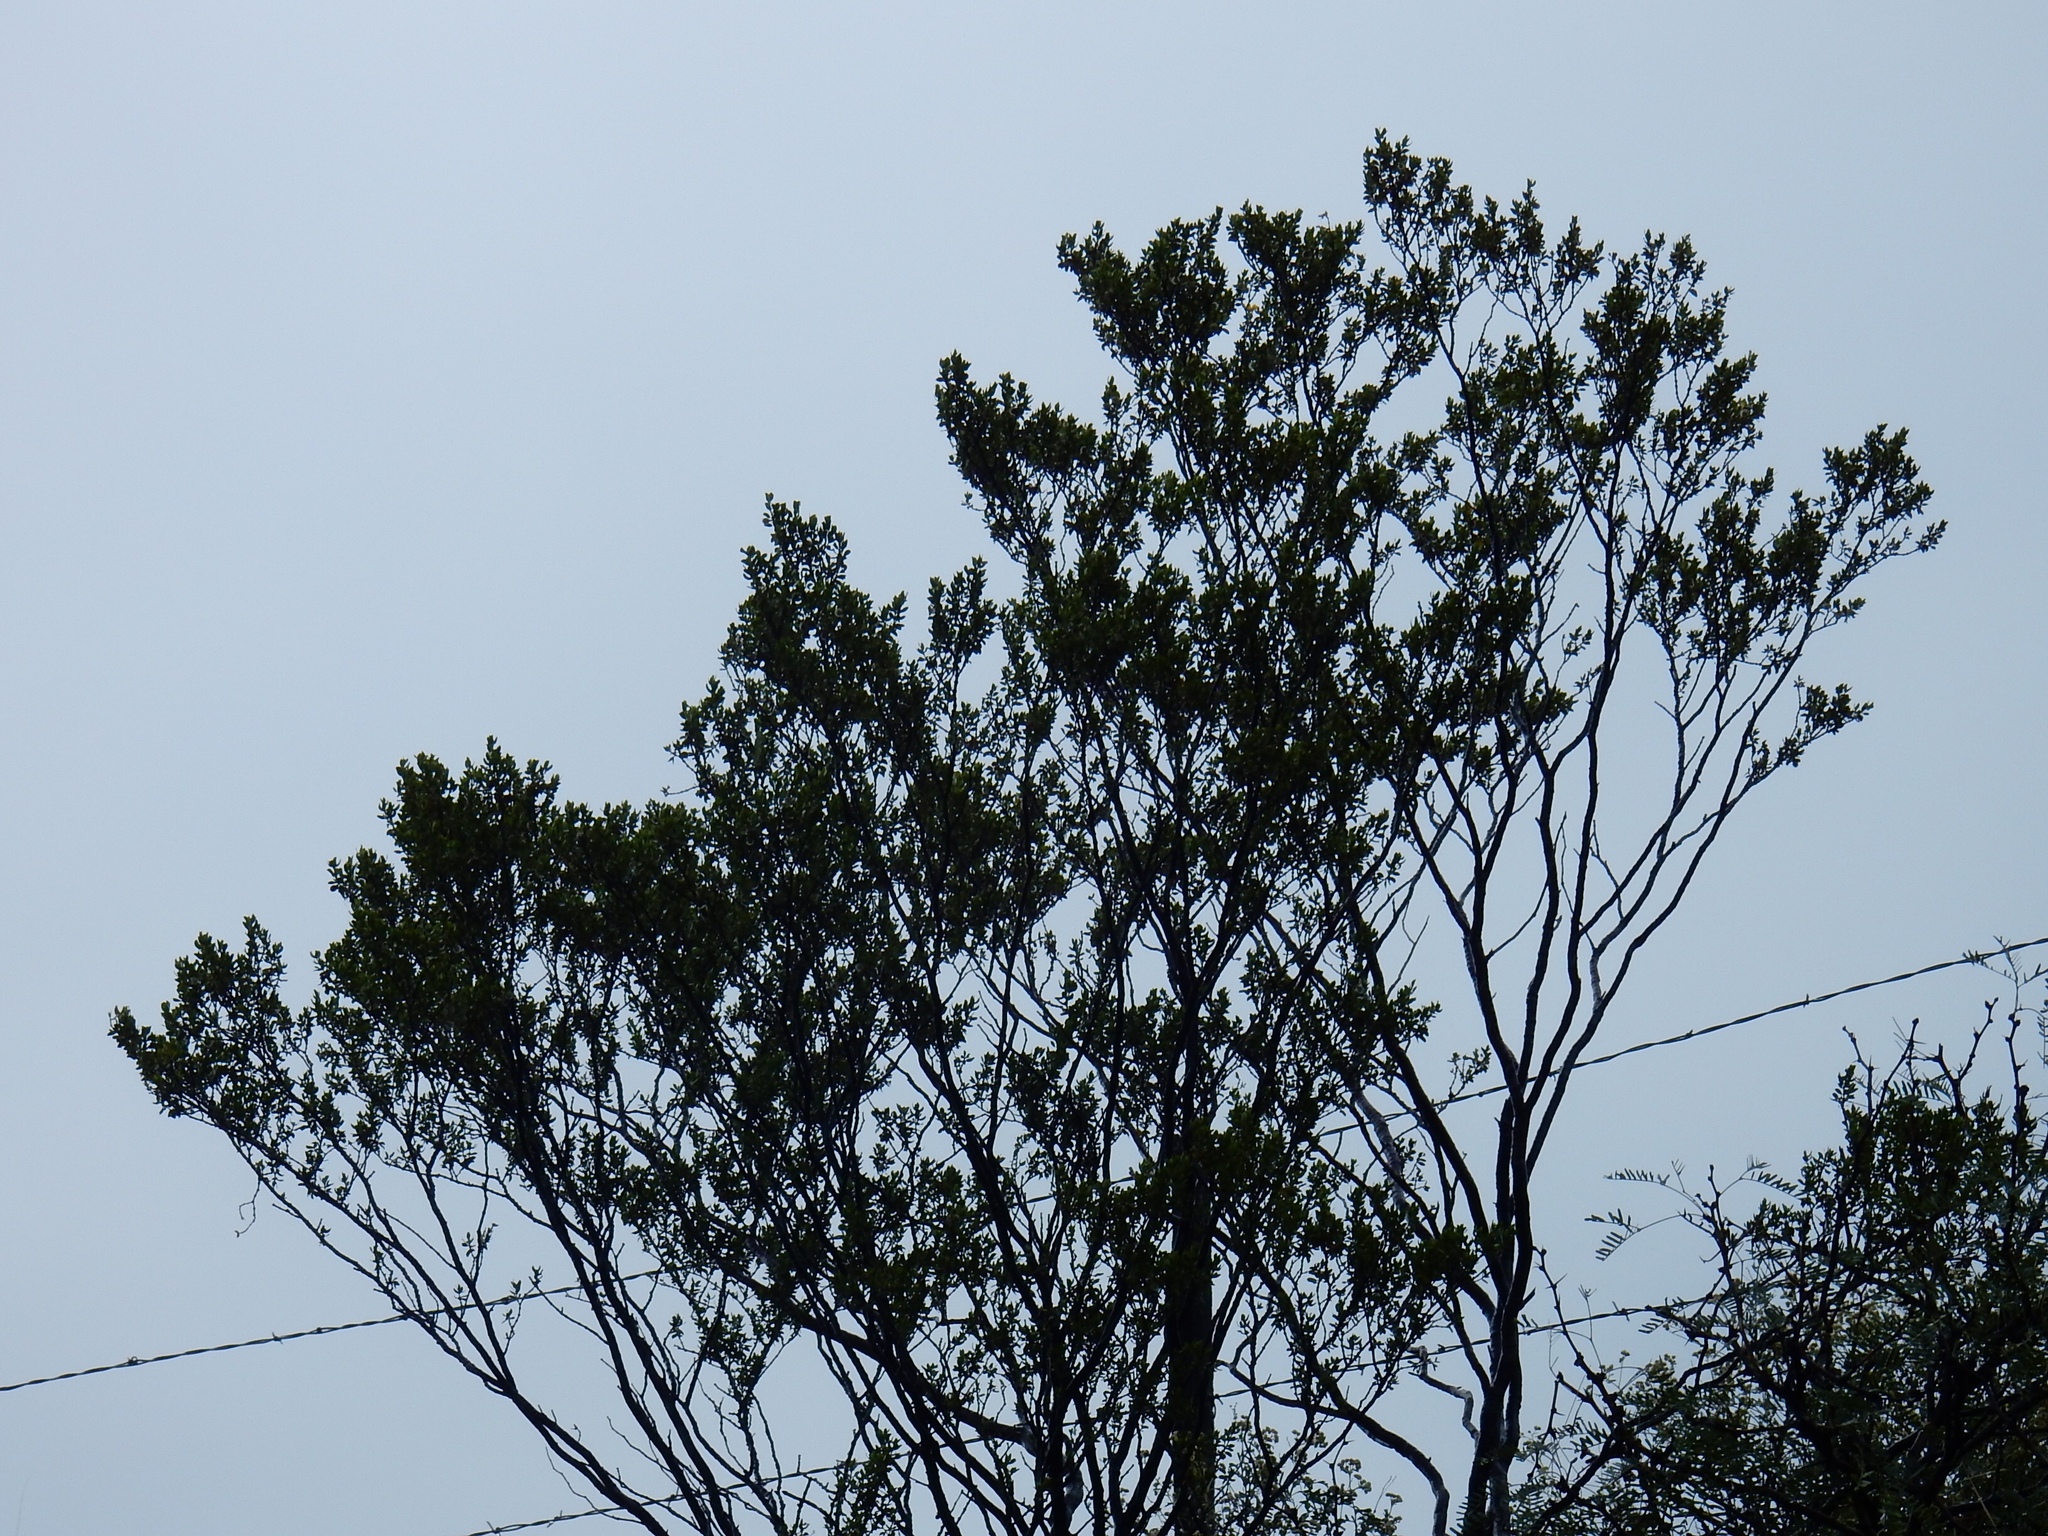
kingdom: Plantae
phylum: Tracheophyta
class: Magnoliopsida
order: Zygophyllales
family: Zygophyllaceae
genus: Larrea
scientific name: Larrea tridentata
